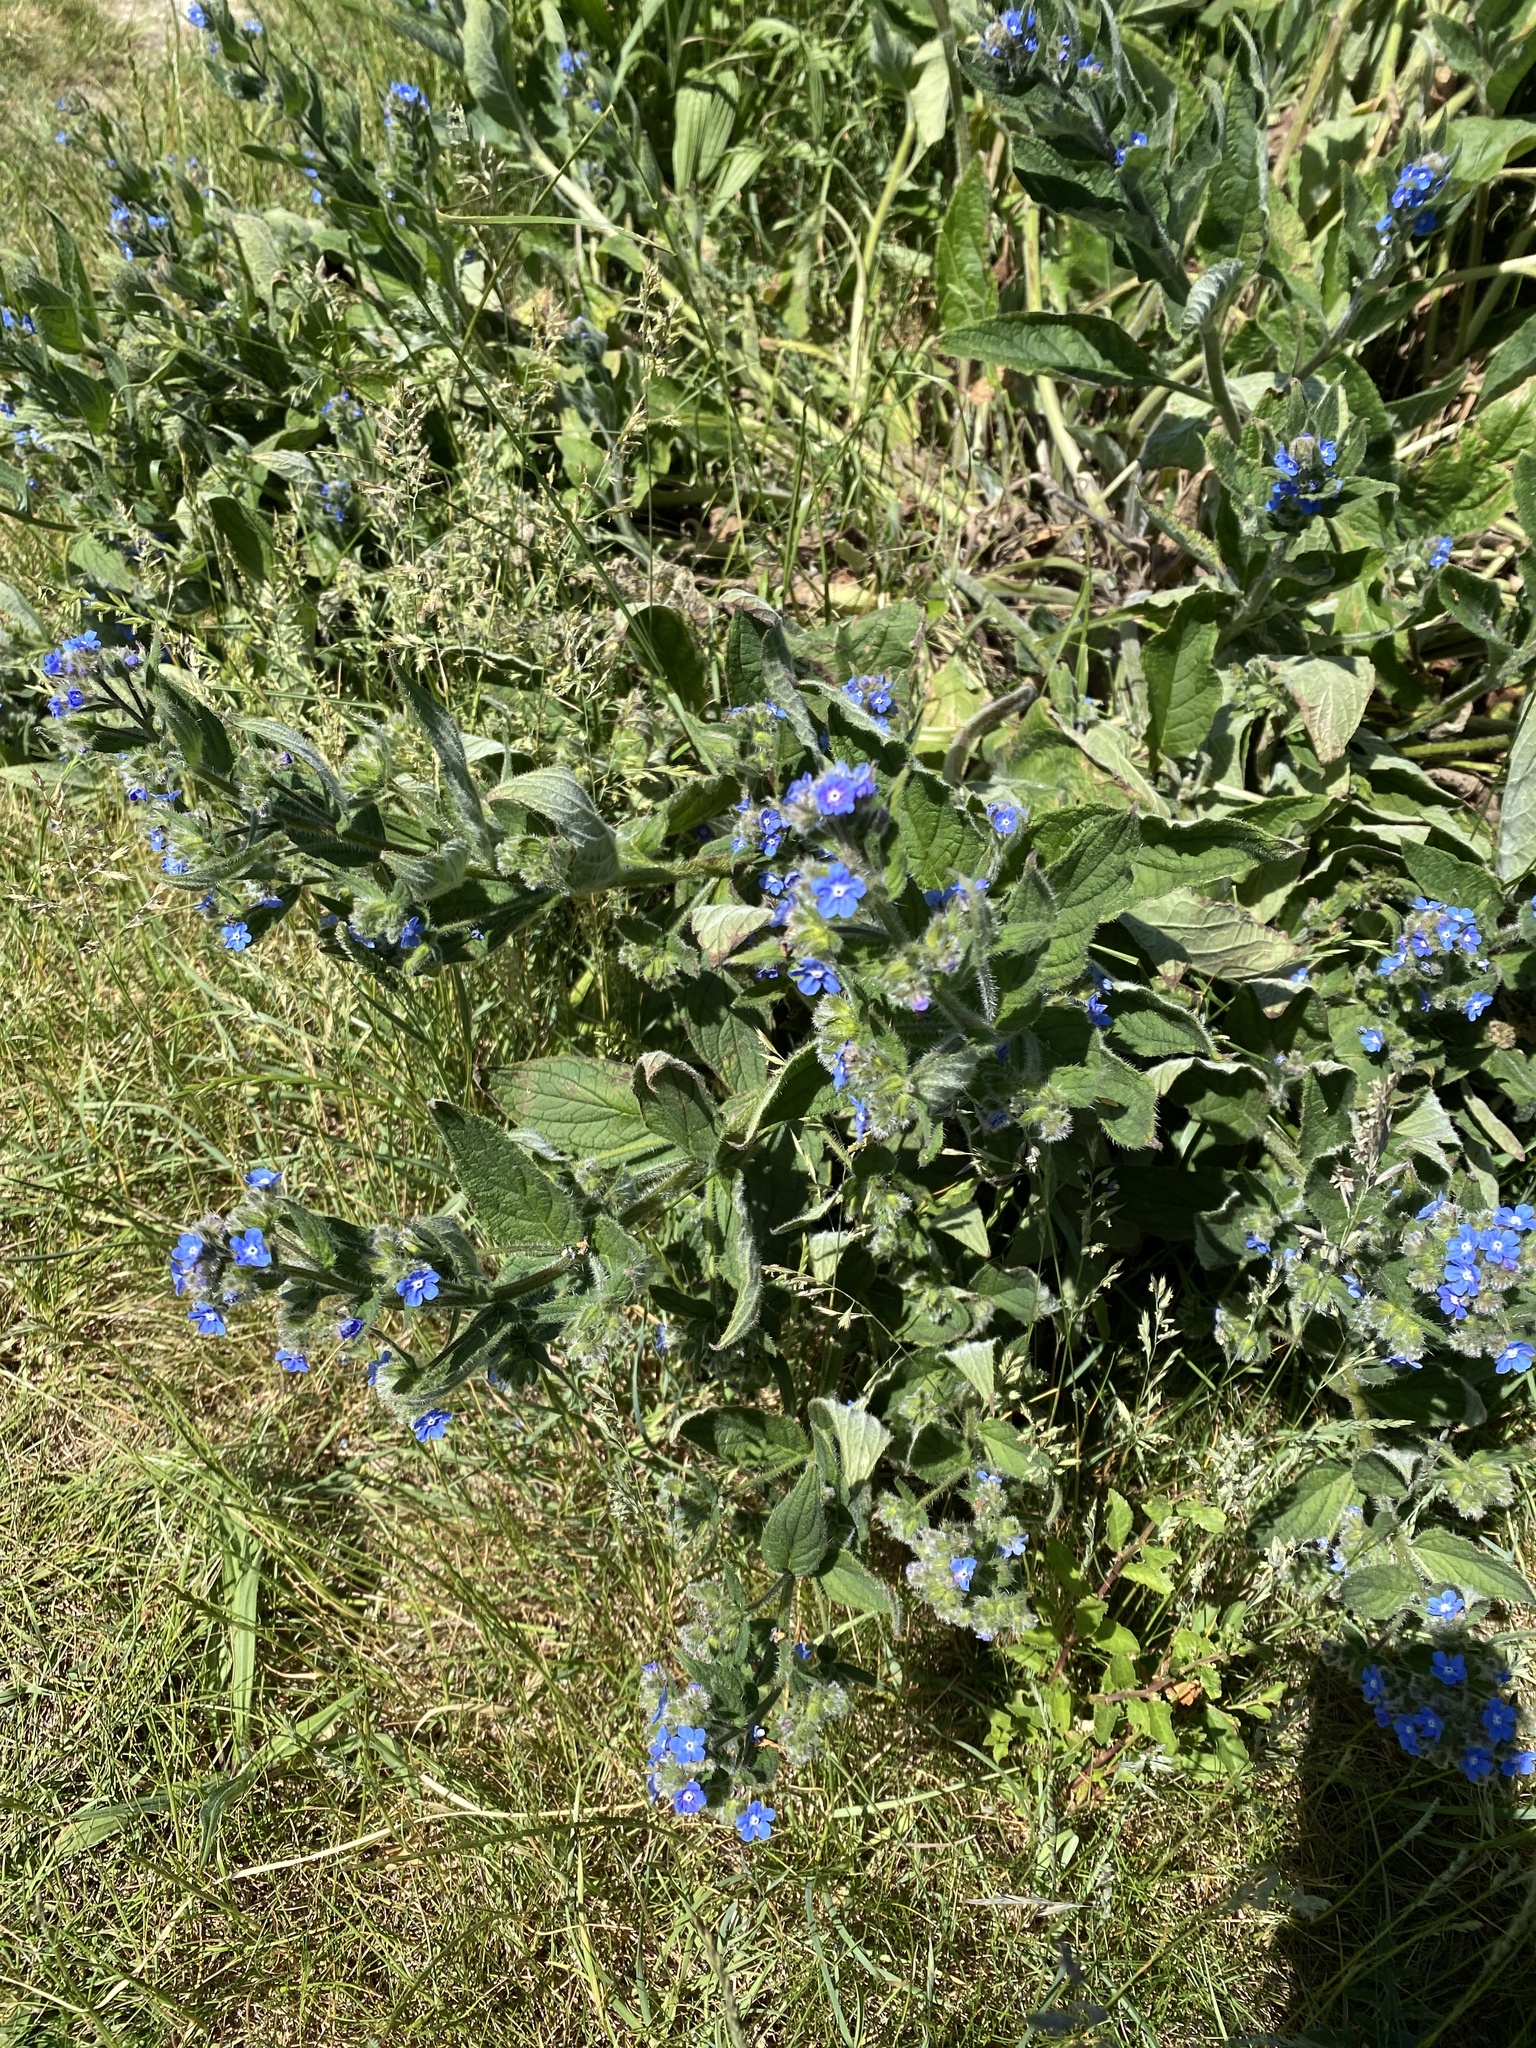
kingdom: Plantae
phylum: Tracheophyta
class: Magnoliopsida
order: Boraginales
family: Boraginaceae
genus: Pentaglottis
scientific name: Pentaglottis sempervirens
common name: Green alkanet
